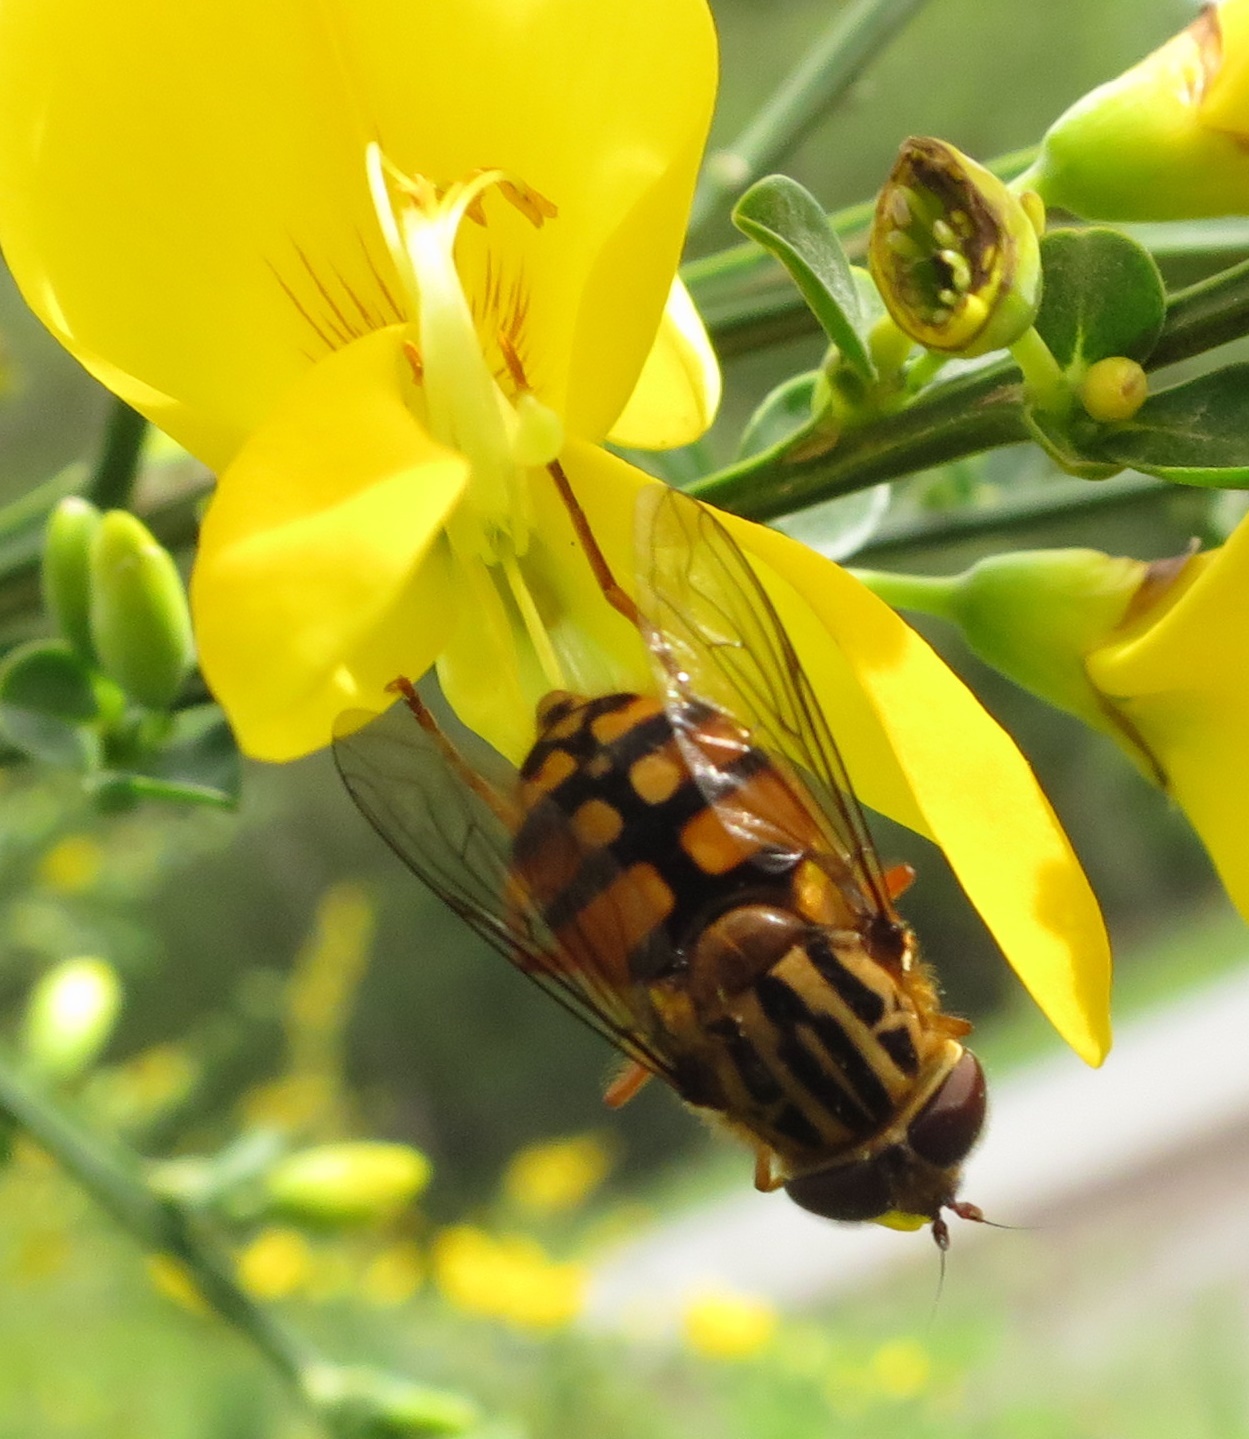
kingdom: Animalia
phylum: Arthropoda
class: Insecta
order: Diptera
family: Syrphidae
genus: Helophilus
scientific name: Helophilus campbelli
